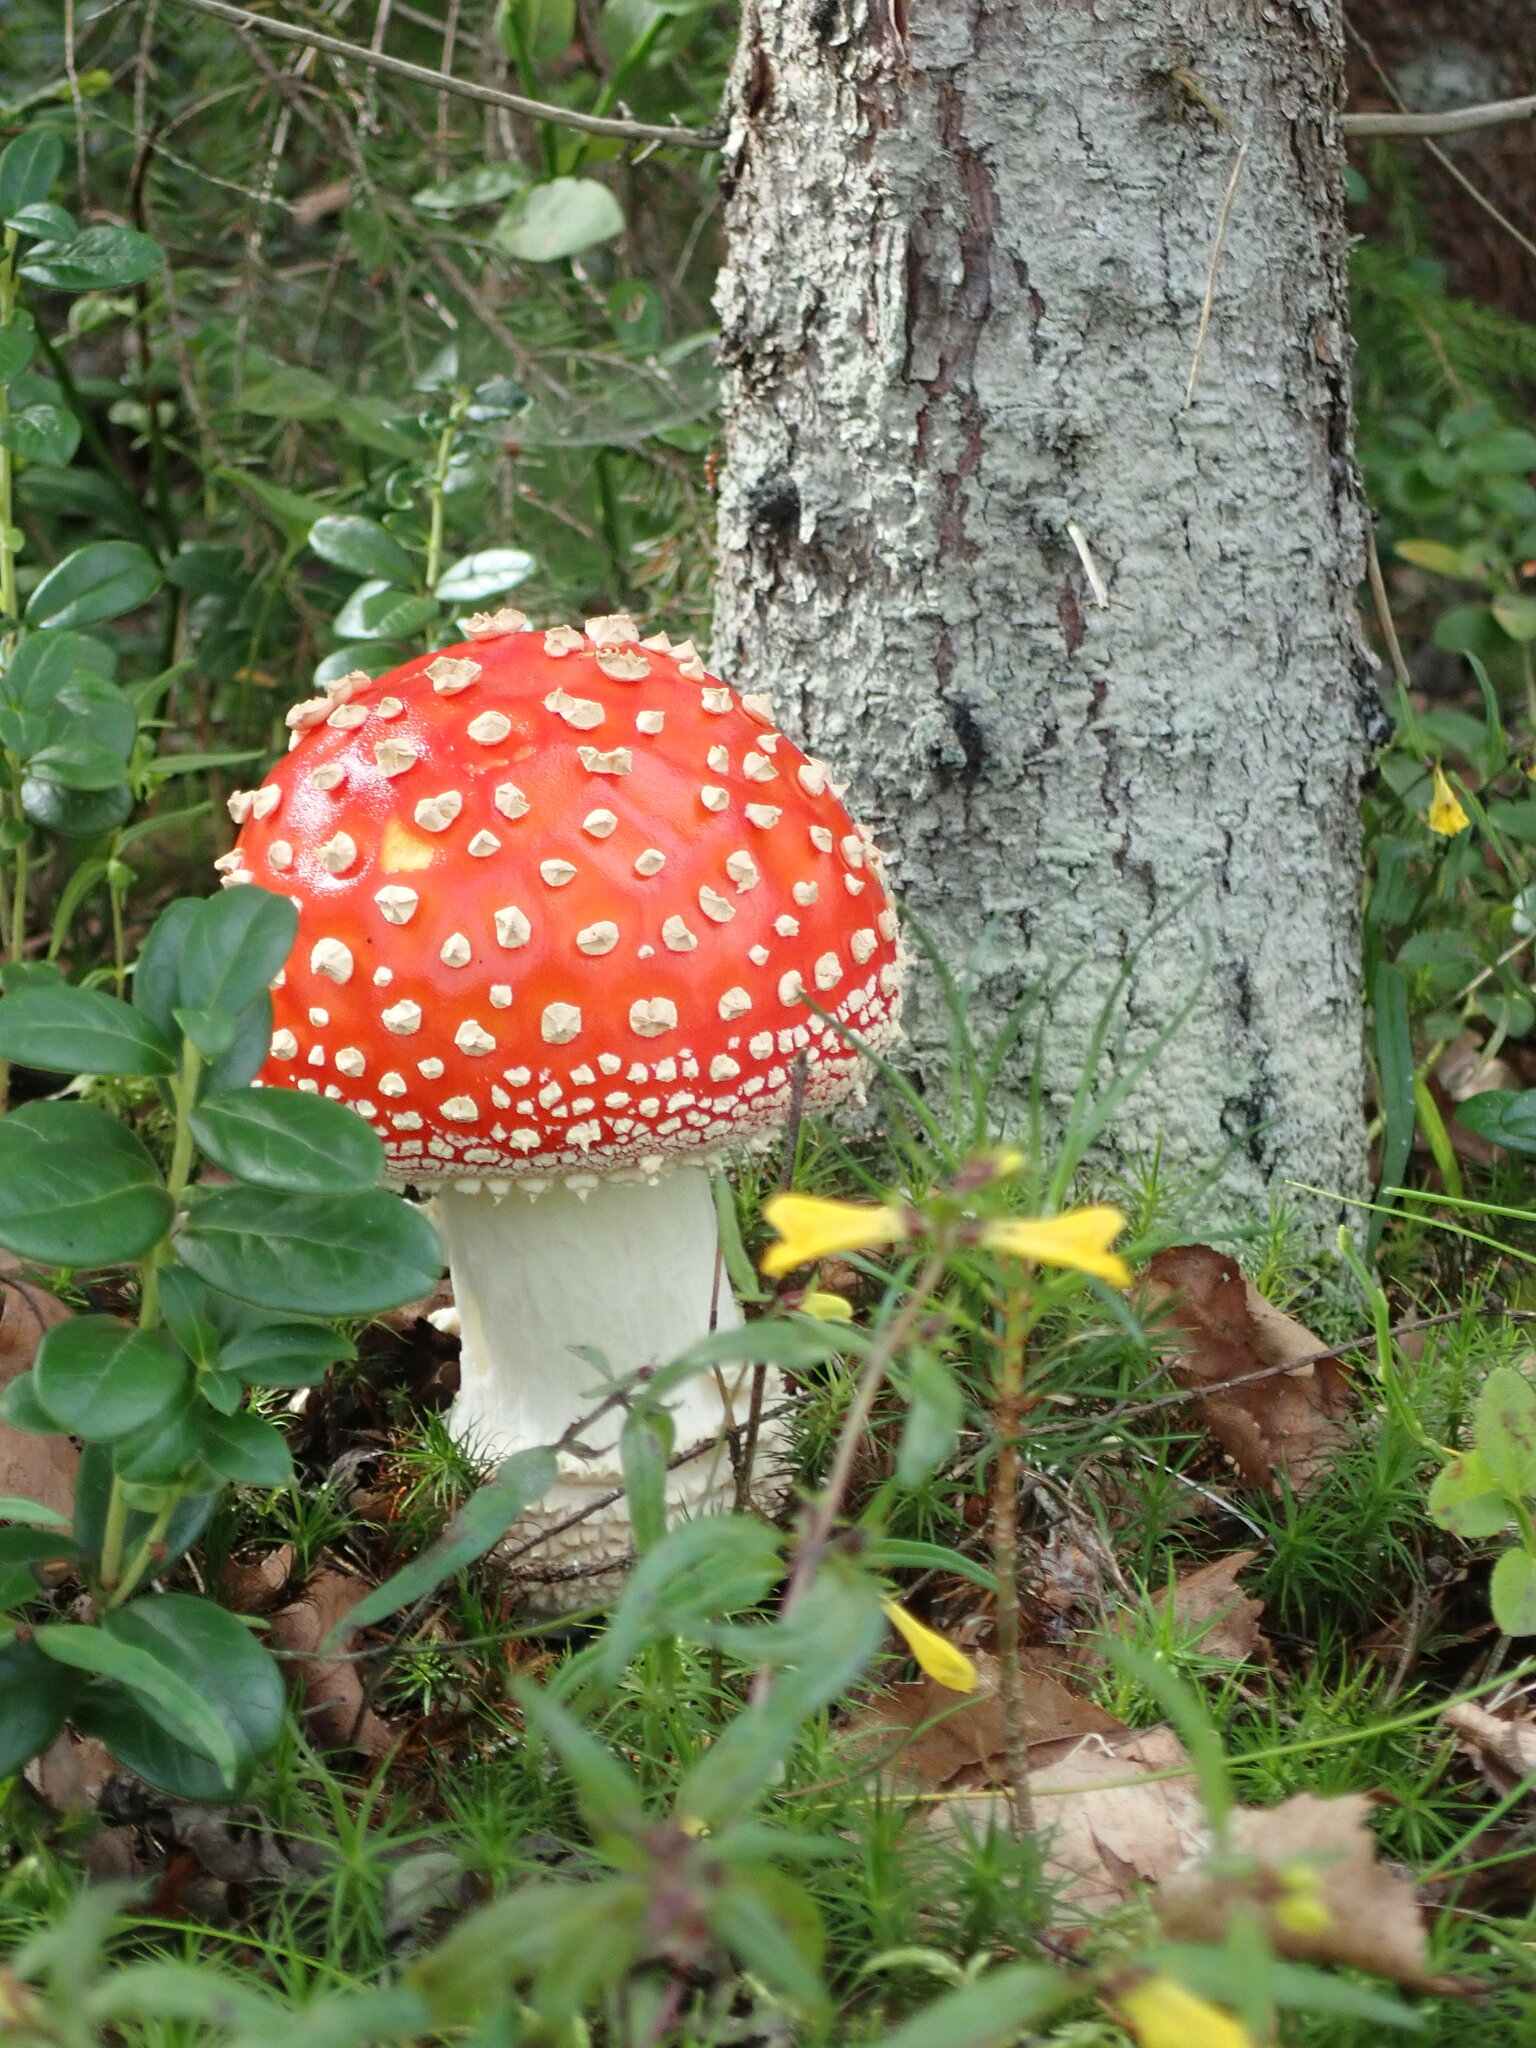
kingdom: Fungi
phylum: Basidiomycota
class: Agaricomycetes
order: Agaricales
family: Amanitaceae
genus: Amanita
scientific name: Amanita muscaria
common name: Fly agaric
